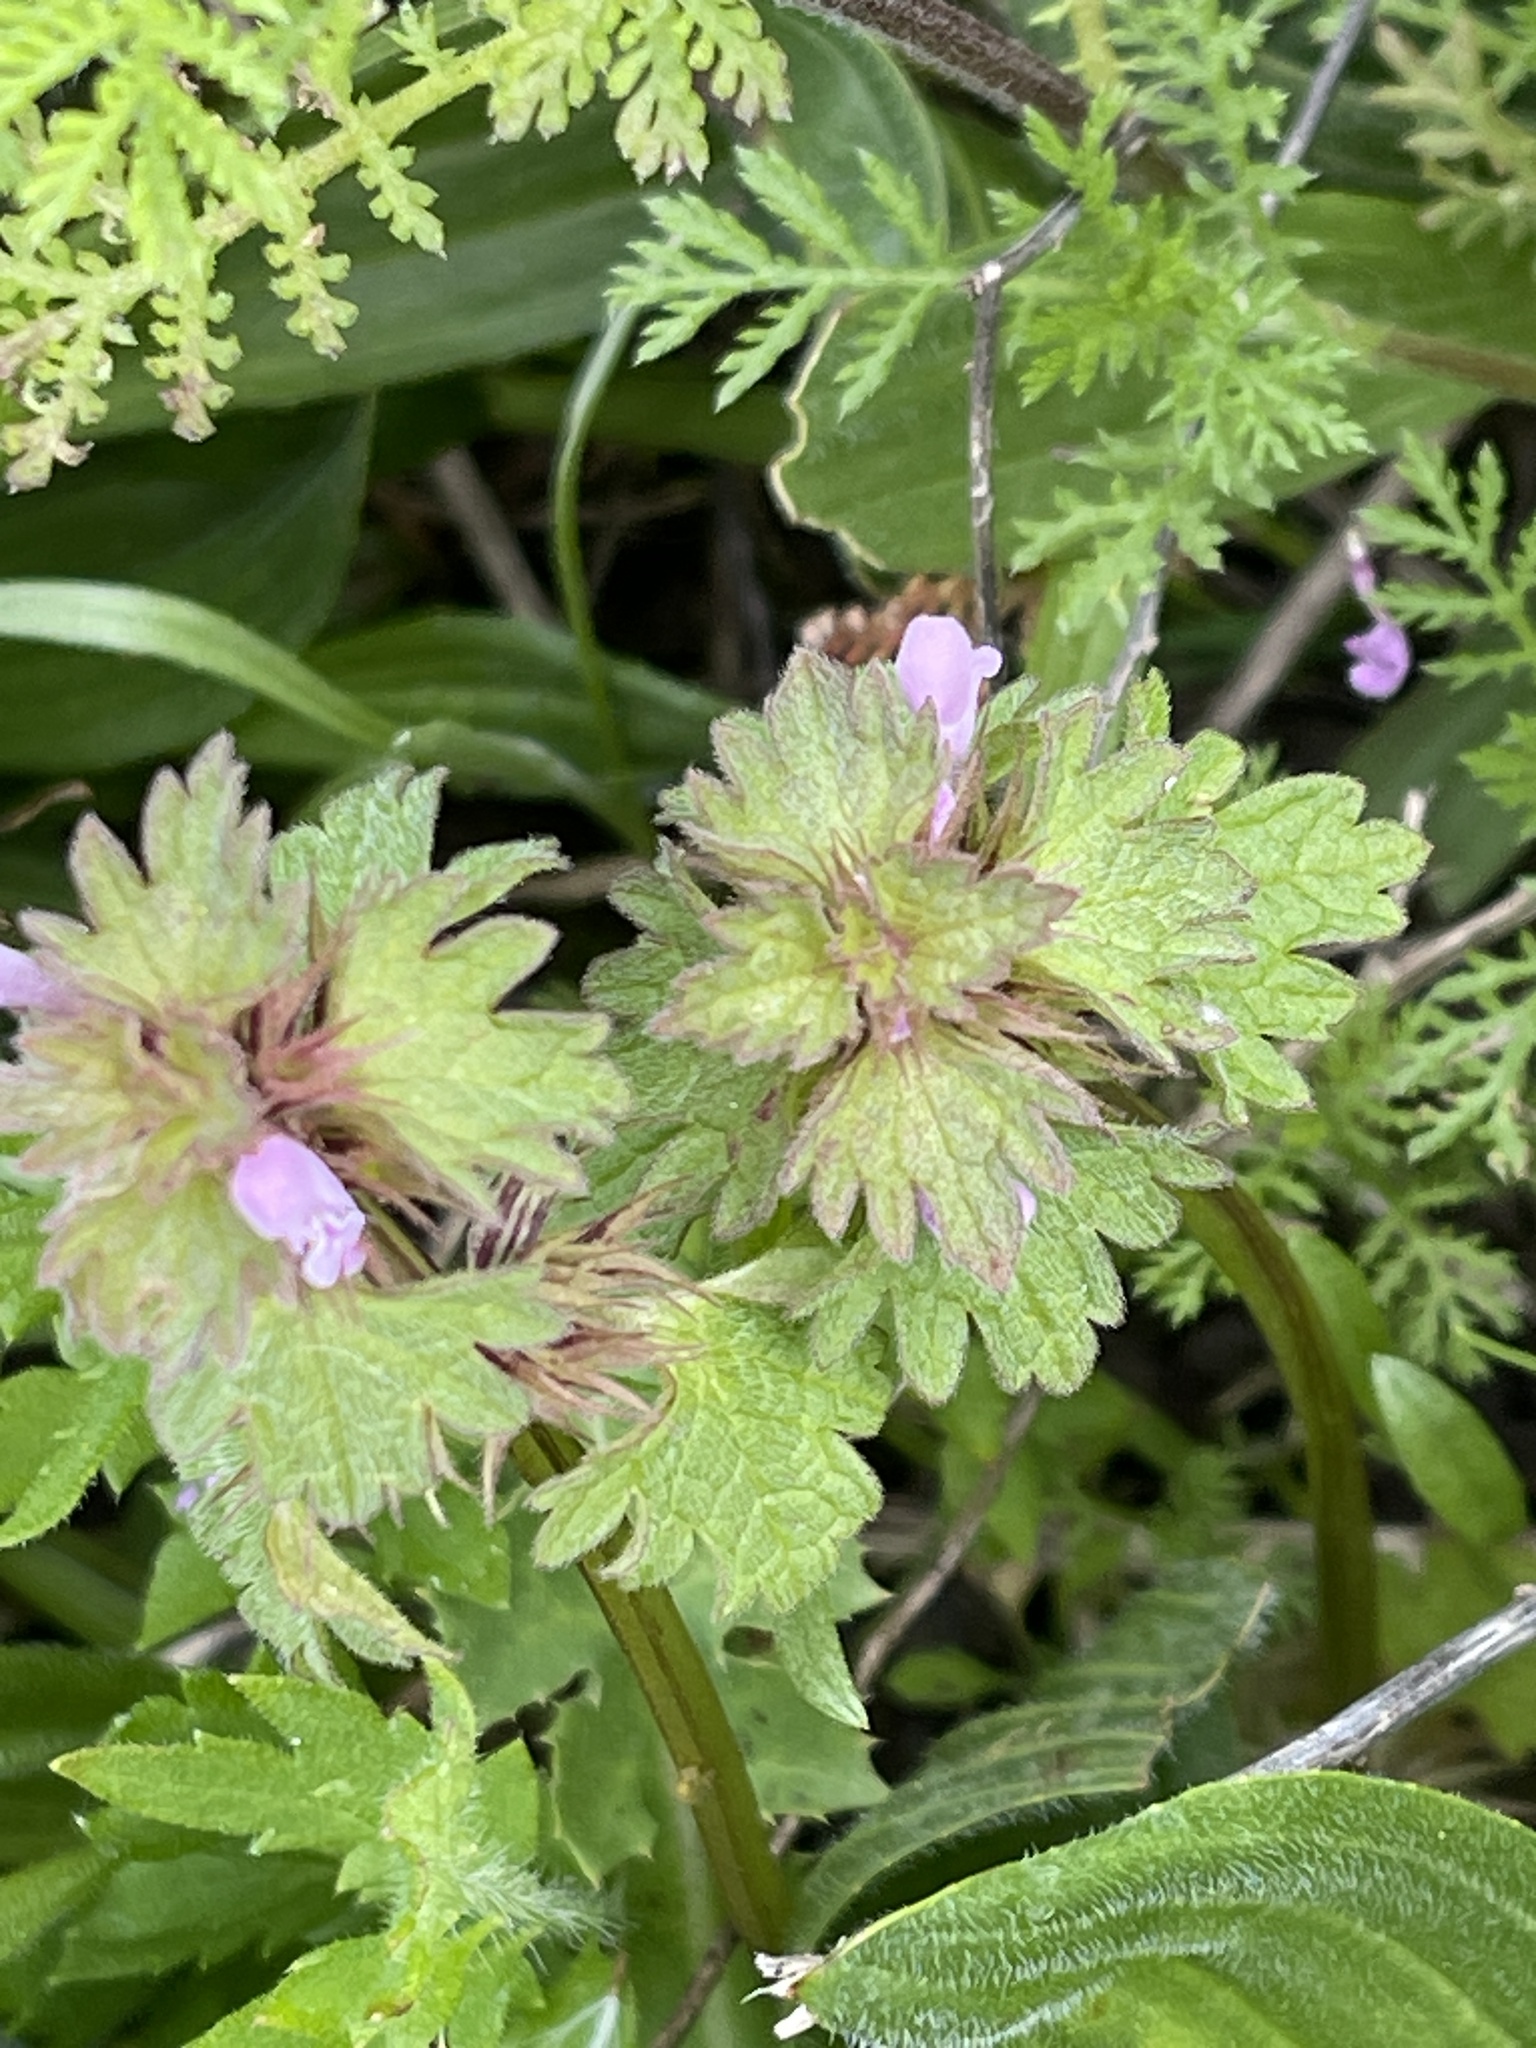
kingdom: Plantae
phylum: Tracheophyta
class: Magnoliopsida
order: Lamiales
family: Lamiaceae
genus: Lamium
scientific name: Lamium hybridum
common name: Cut-leaved dead-nettle
